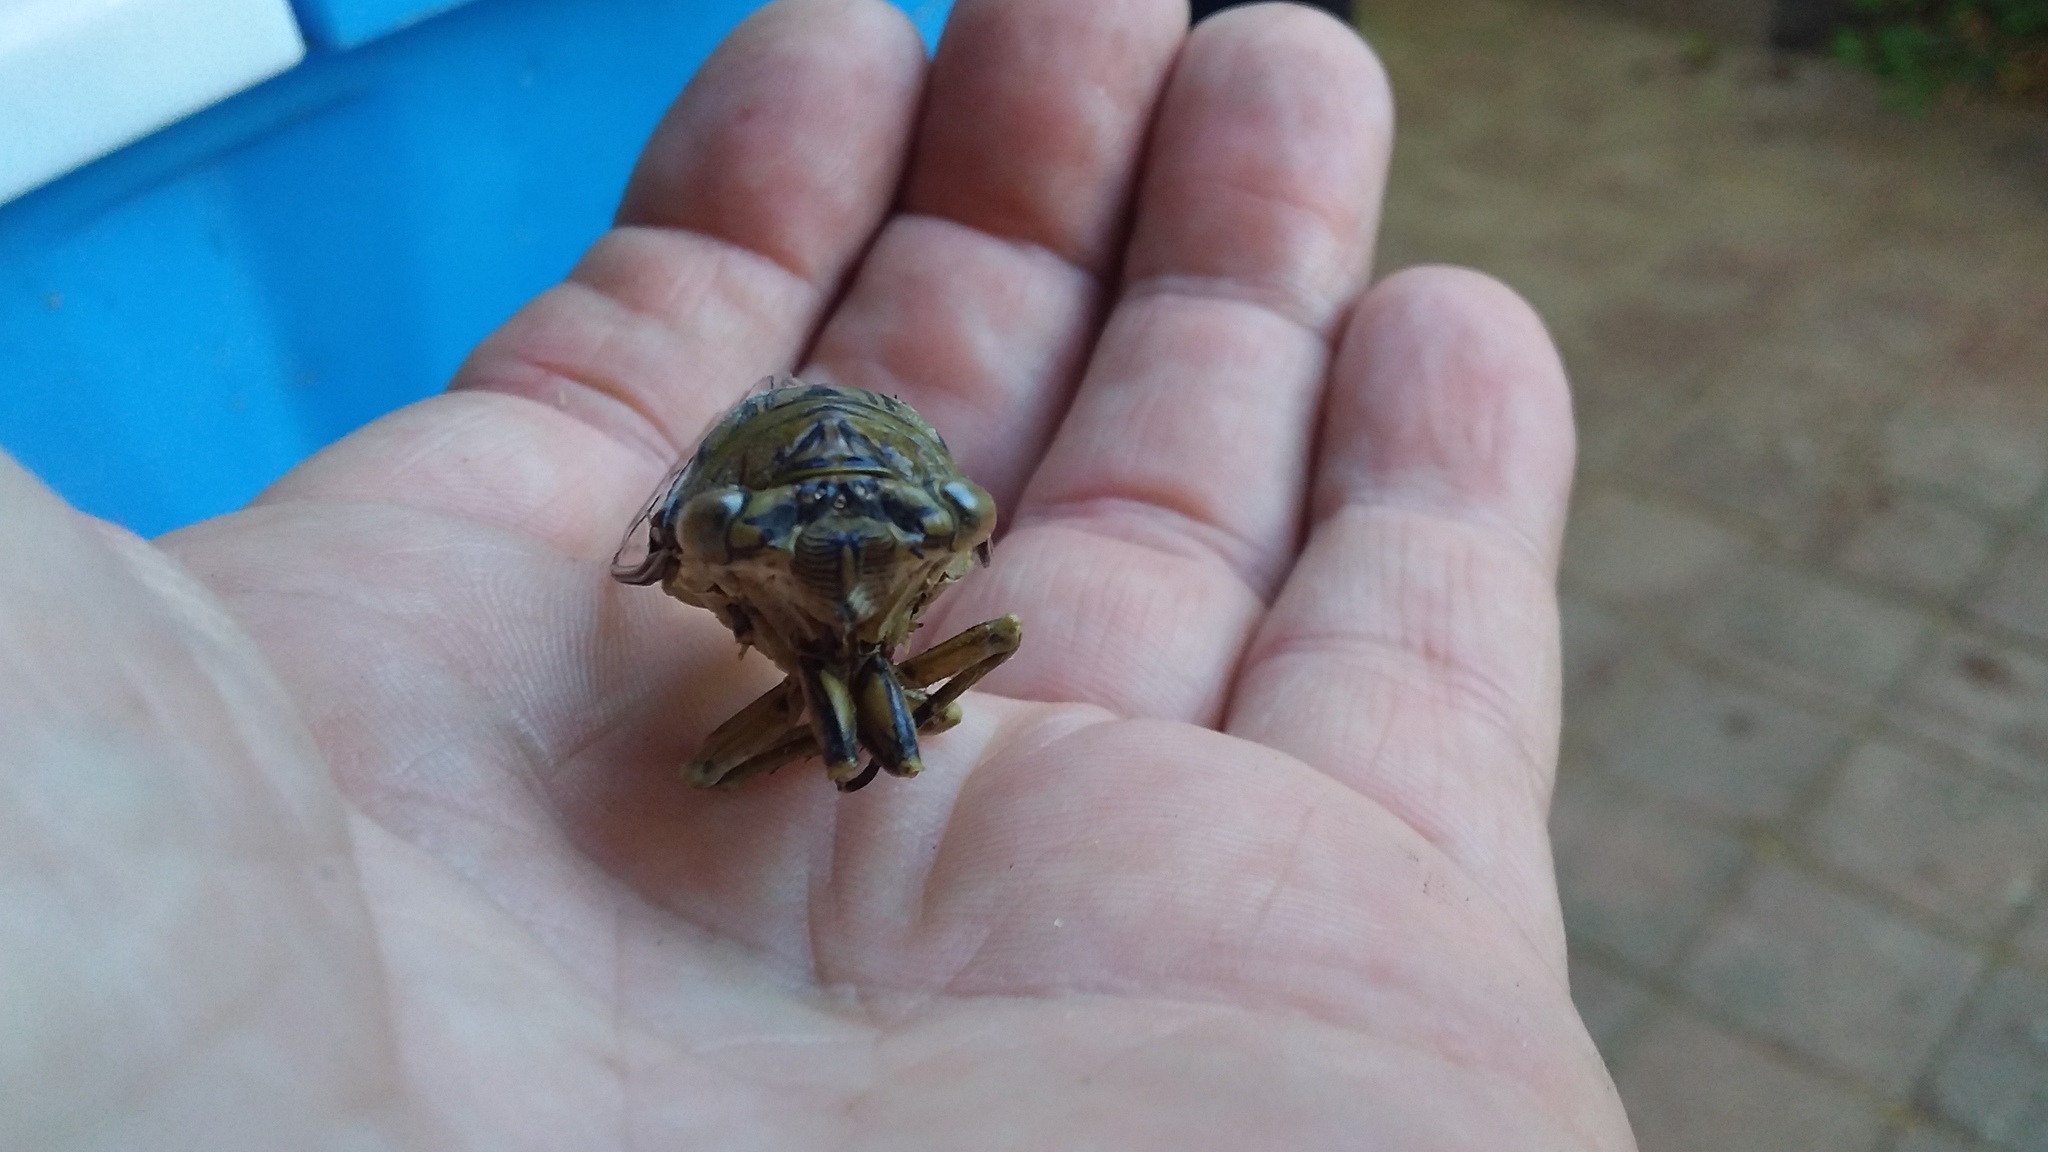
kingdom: Animalia
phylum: Arthropoda
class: Insecta
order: Hemiptera
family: Cicadidae
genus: Quesada
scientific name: Quesada gigas
